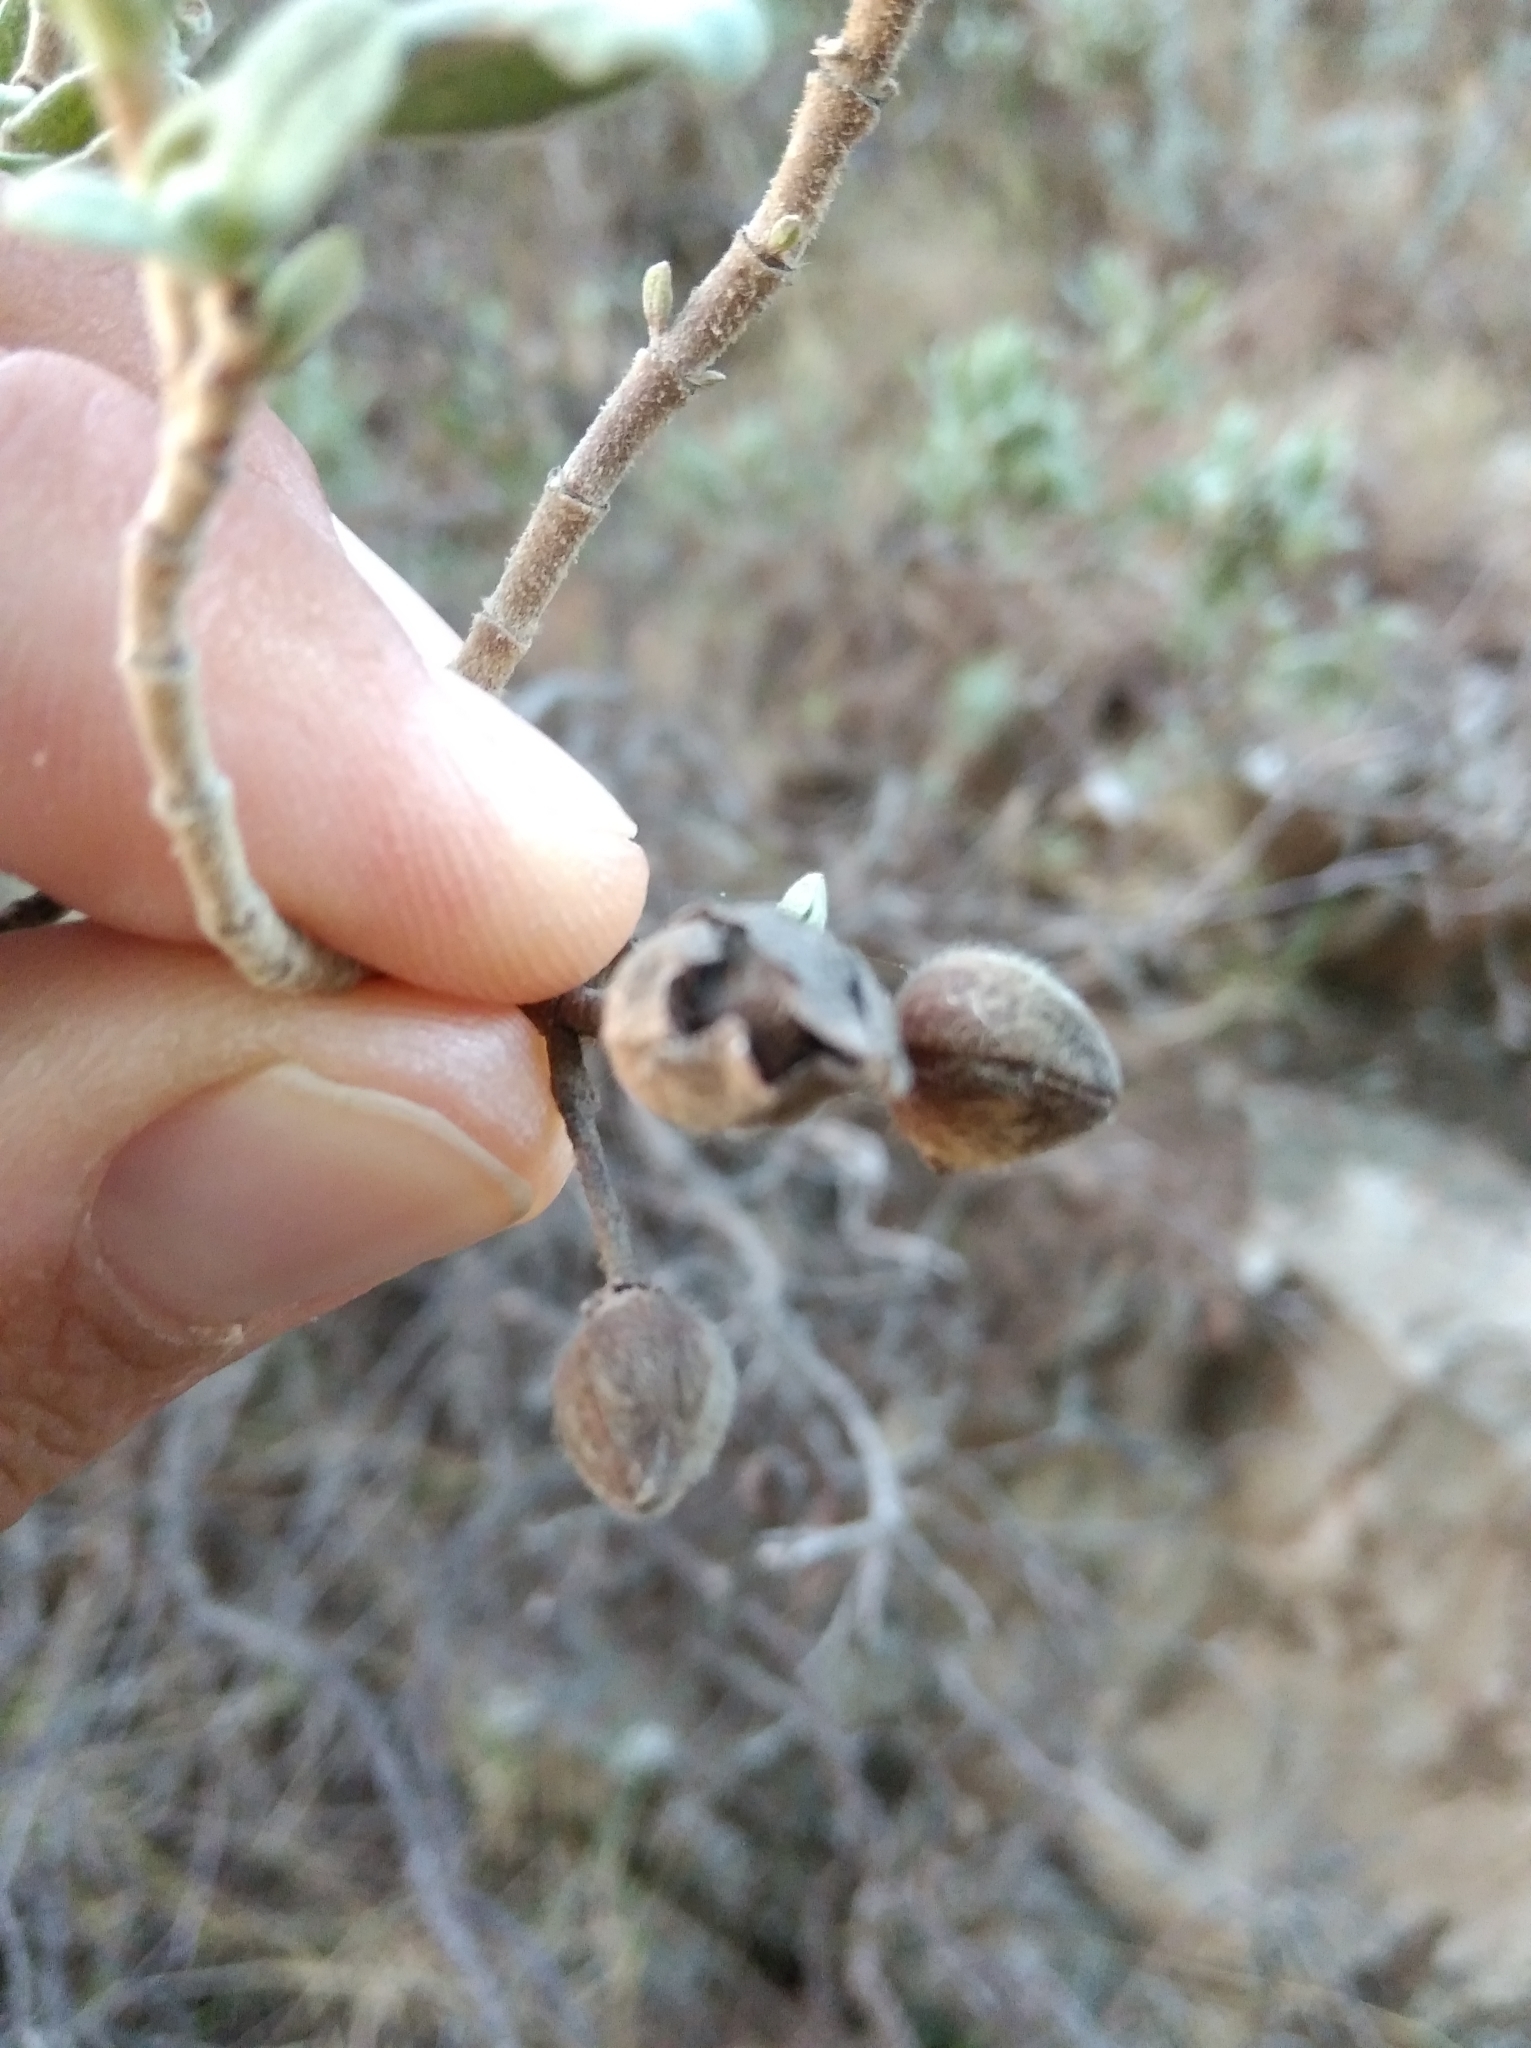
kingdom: Plantae
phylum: Tracheophyta
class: Magnoliopsida
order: Malvales
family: Cistaceae
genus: Cistus
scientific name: Cistus albidus
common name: White-leaf rock-rose
